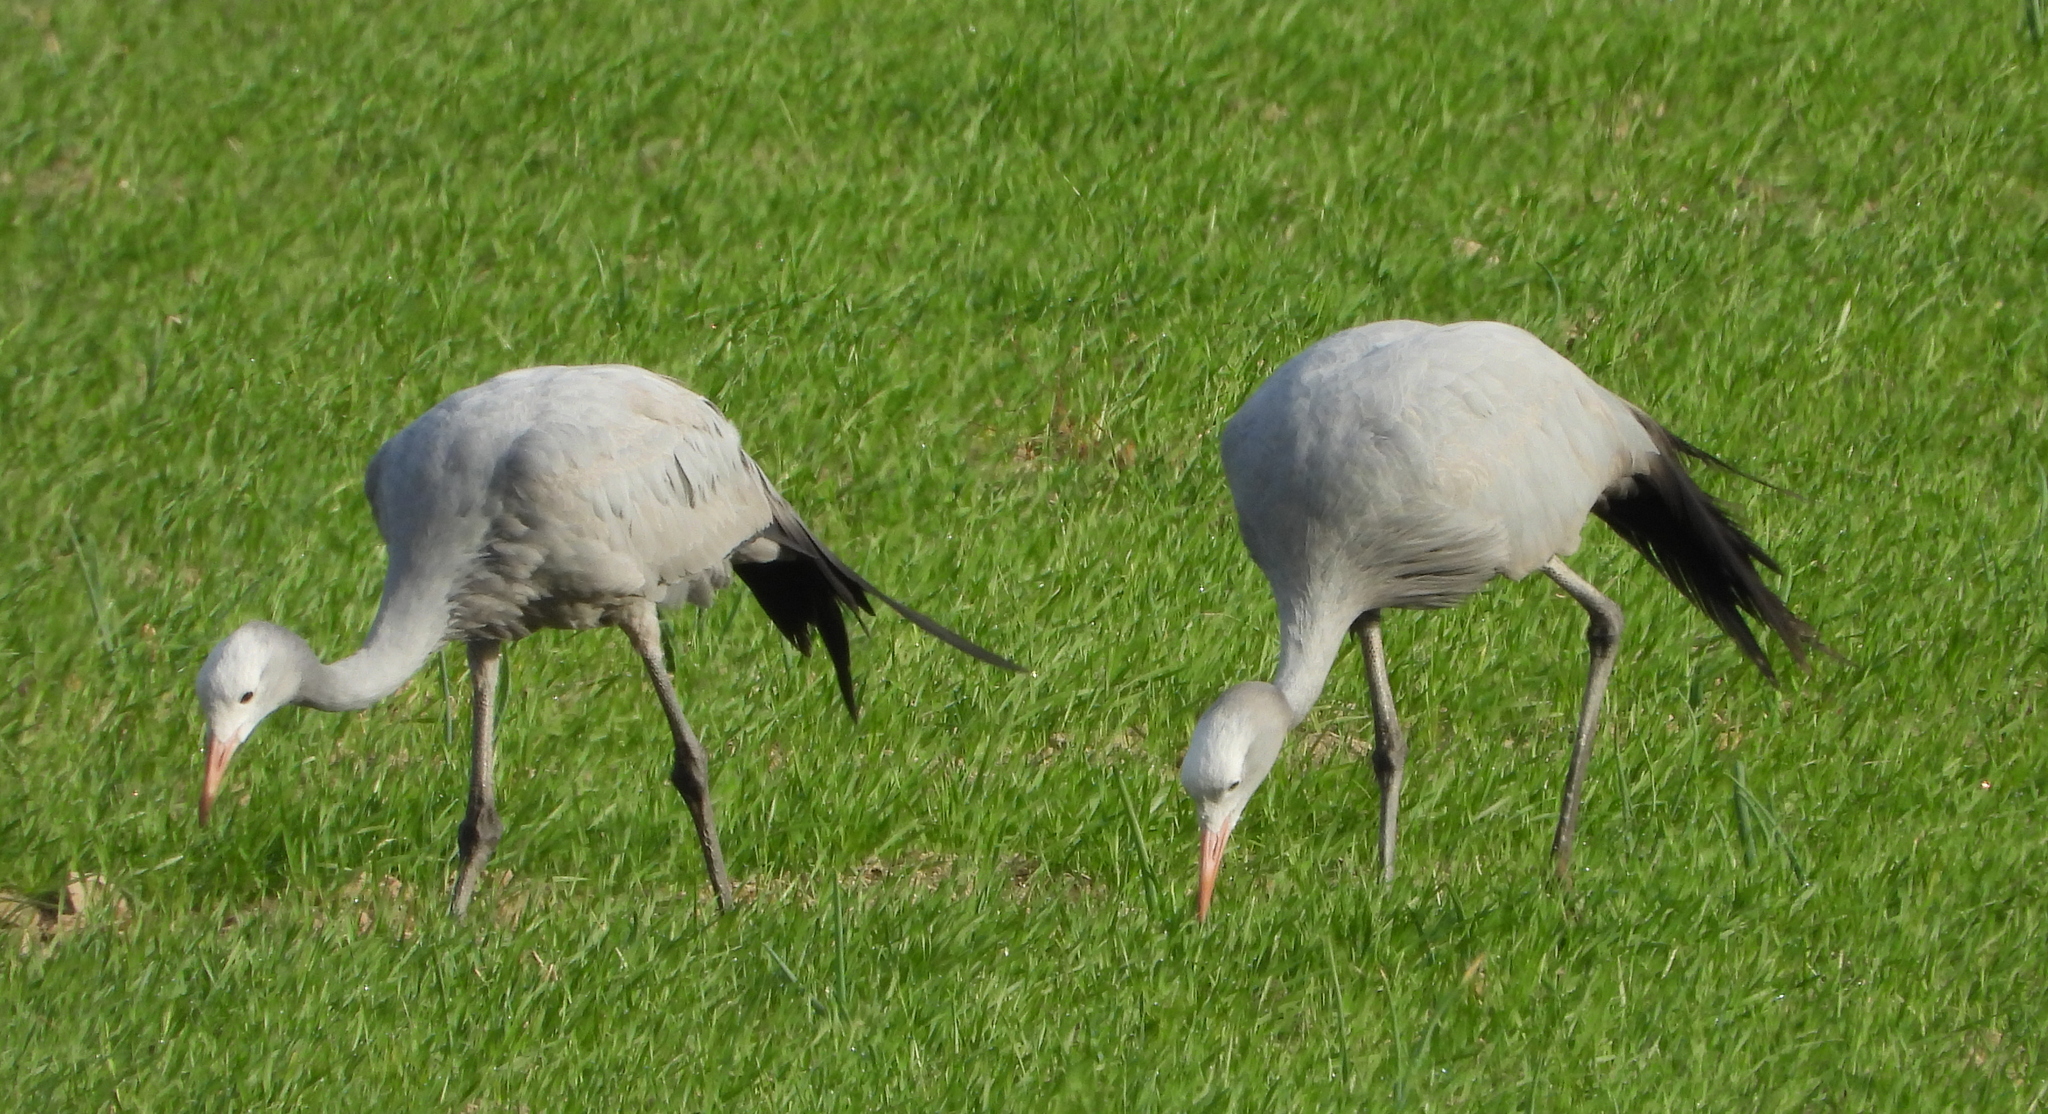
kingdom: Animalia
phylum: Chordata
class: Aves
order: Gruiformes
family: Gruidae
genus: Anthropoides
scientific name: Anthropoides paradiseus
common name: Blue crane
